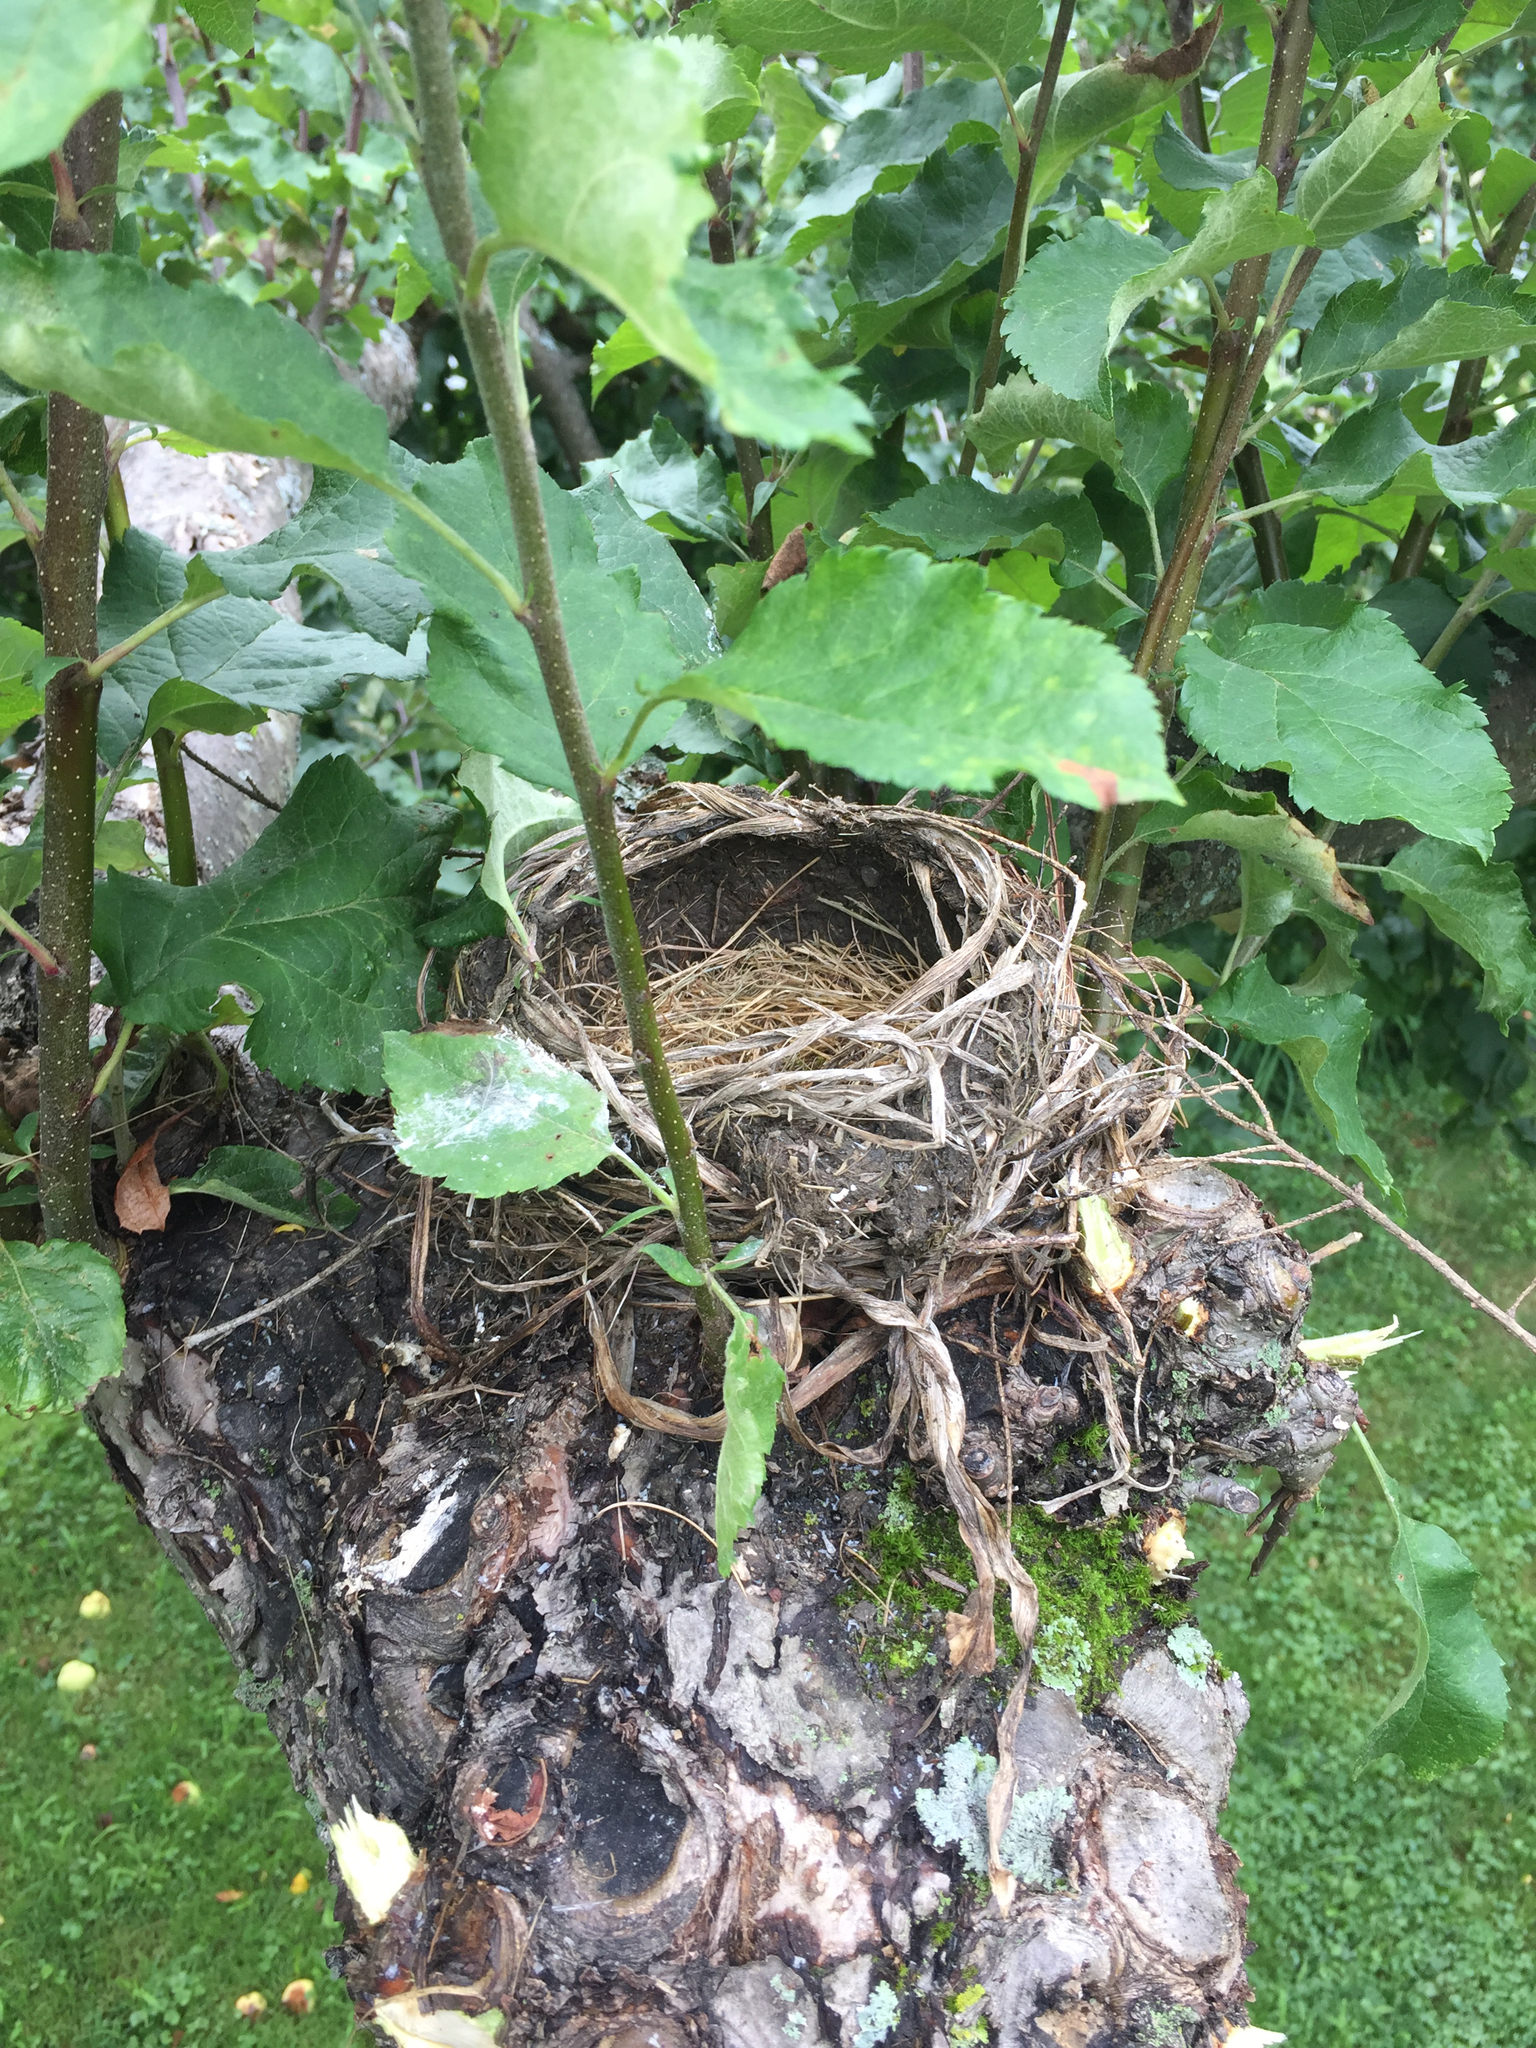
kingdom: Animalia
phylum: Chordata
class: Aves
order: Passeriformes
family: Turdidae
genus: Turdus
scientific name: Turdus migratorius
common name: American robin
